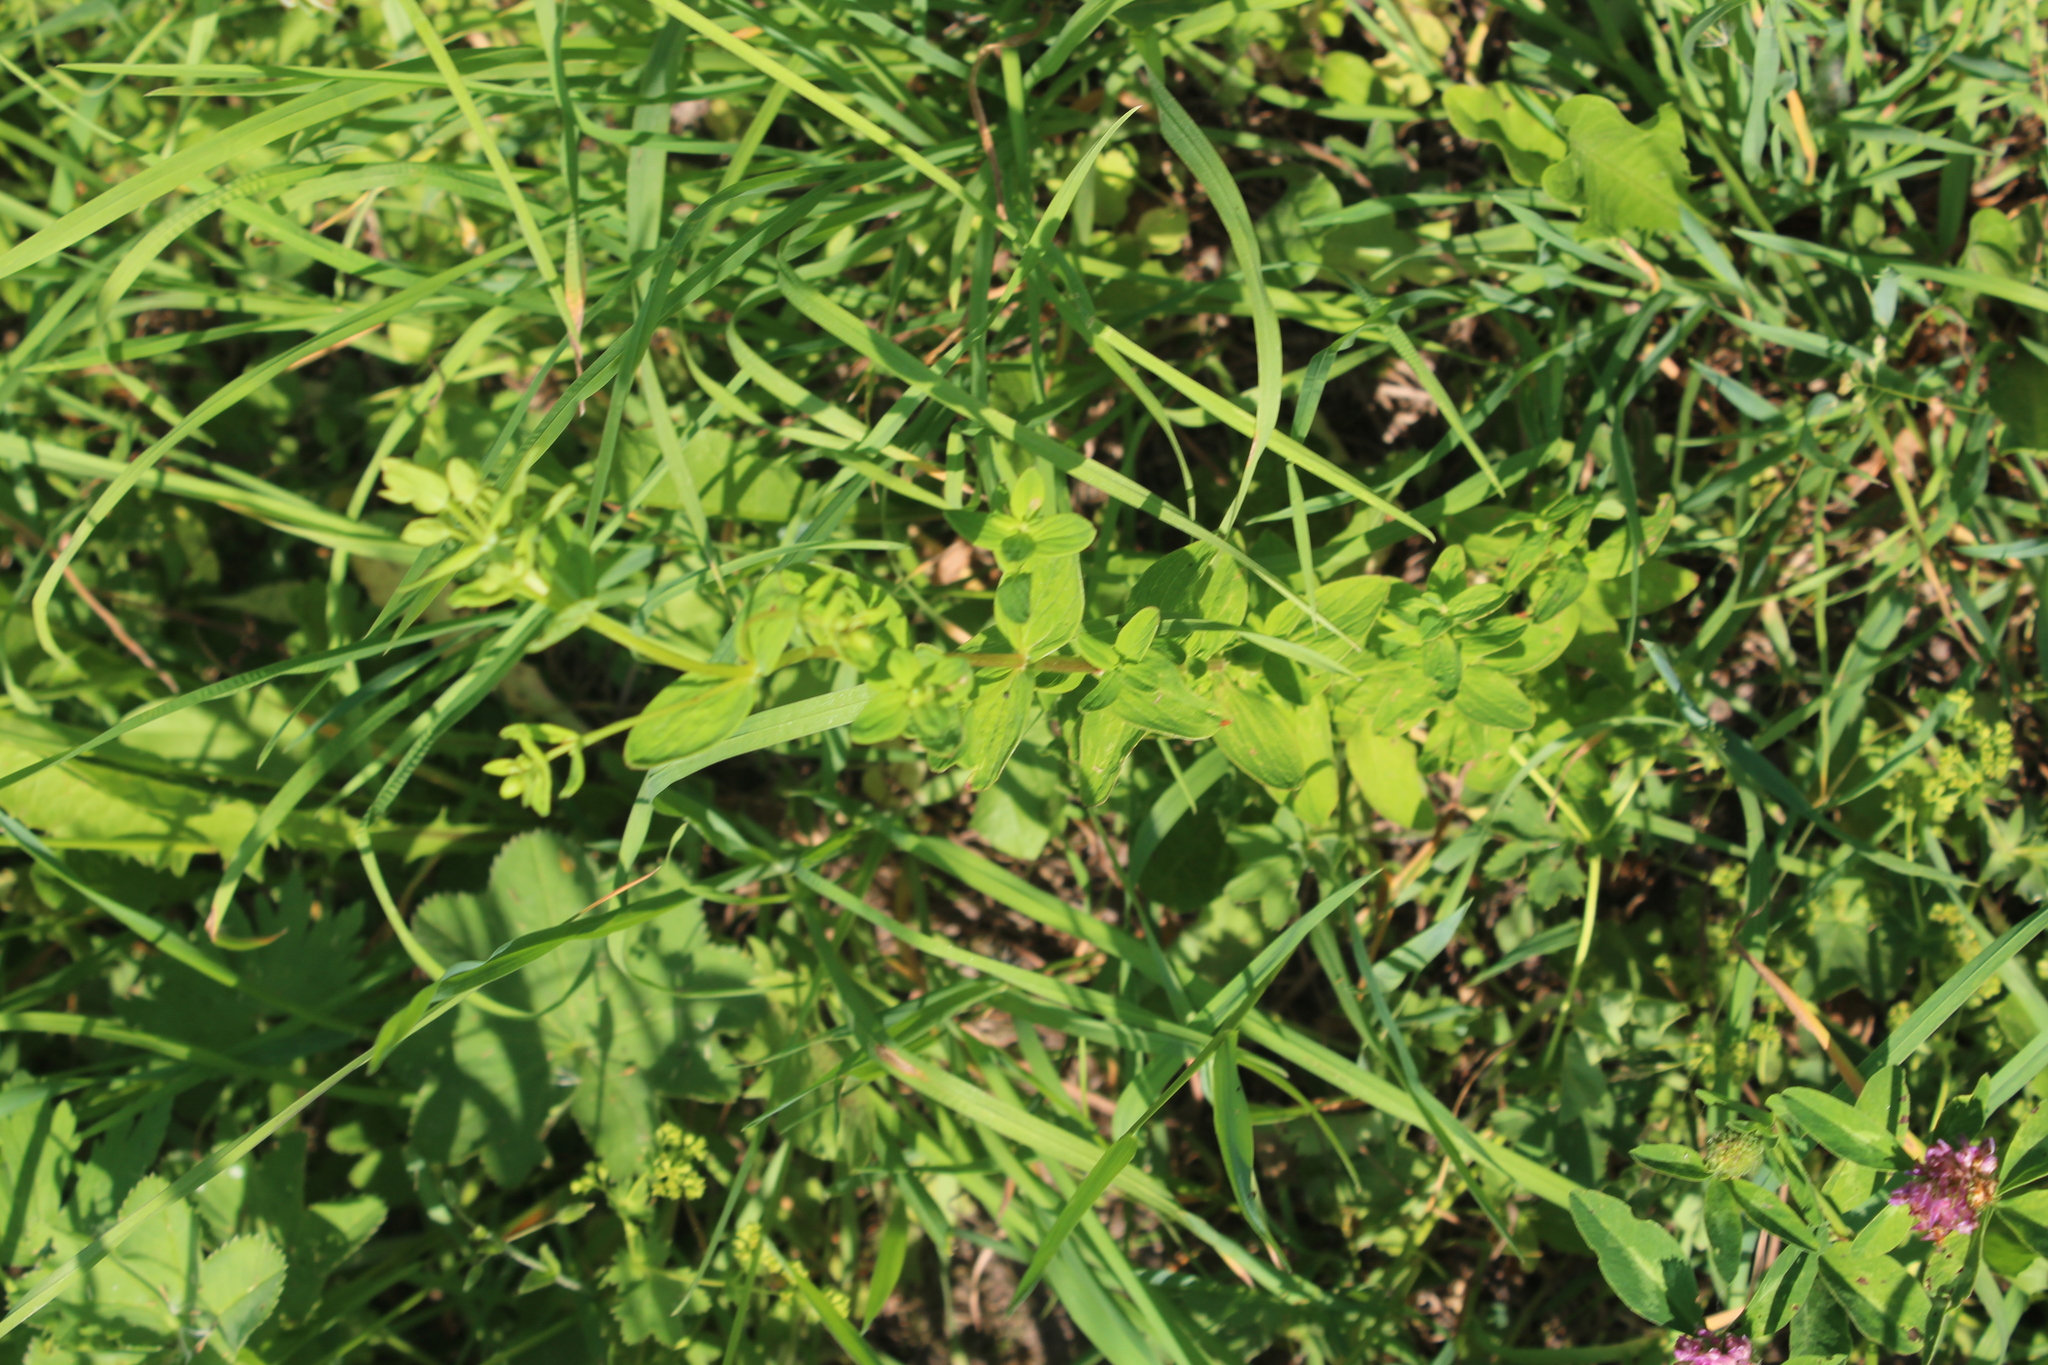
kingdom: Plantae
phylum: Tracheophyta
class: Magnoliopsida
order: Malpighiales
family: Hypericaceae
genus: Hypericum
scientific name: Hypericum maculatum
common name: Imperforate st. john's-wort
